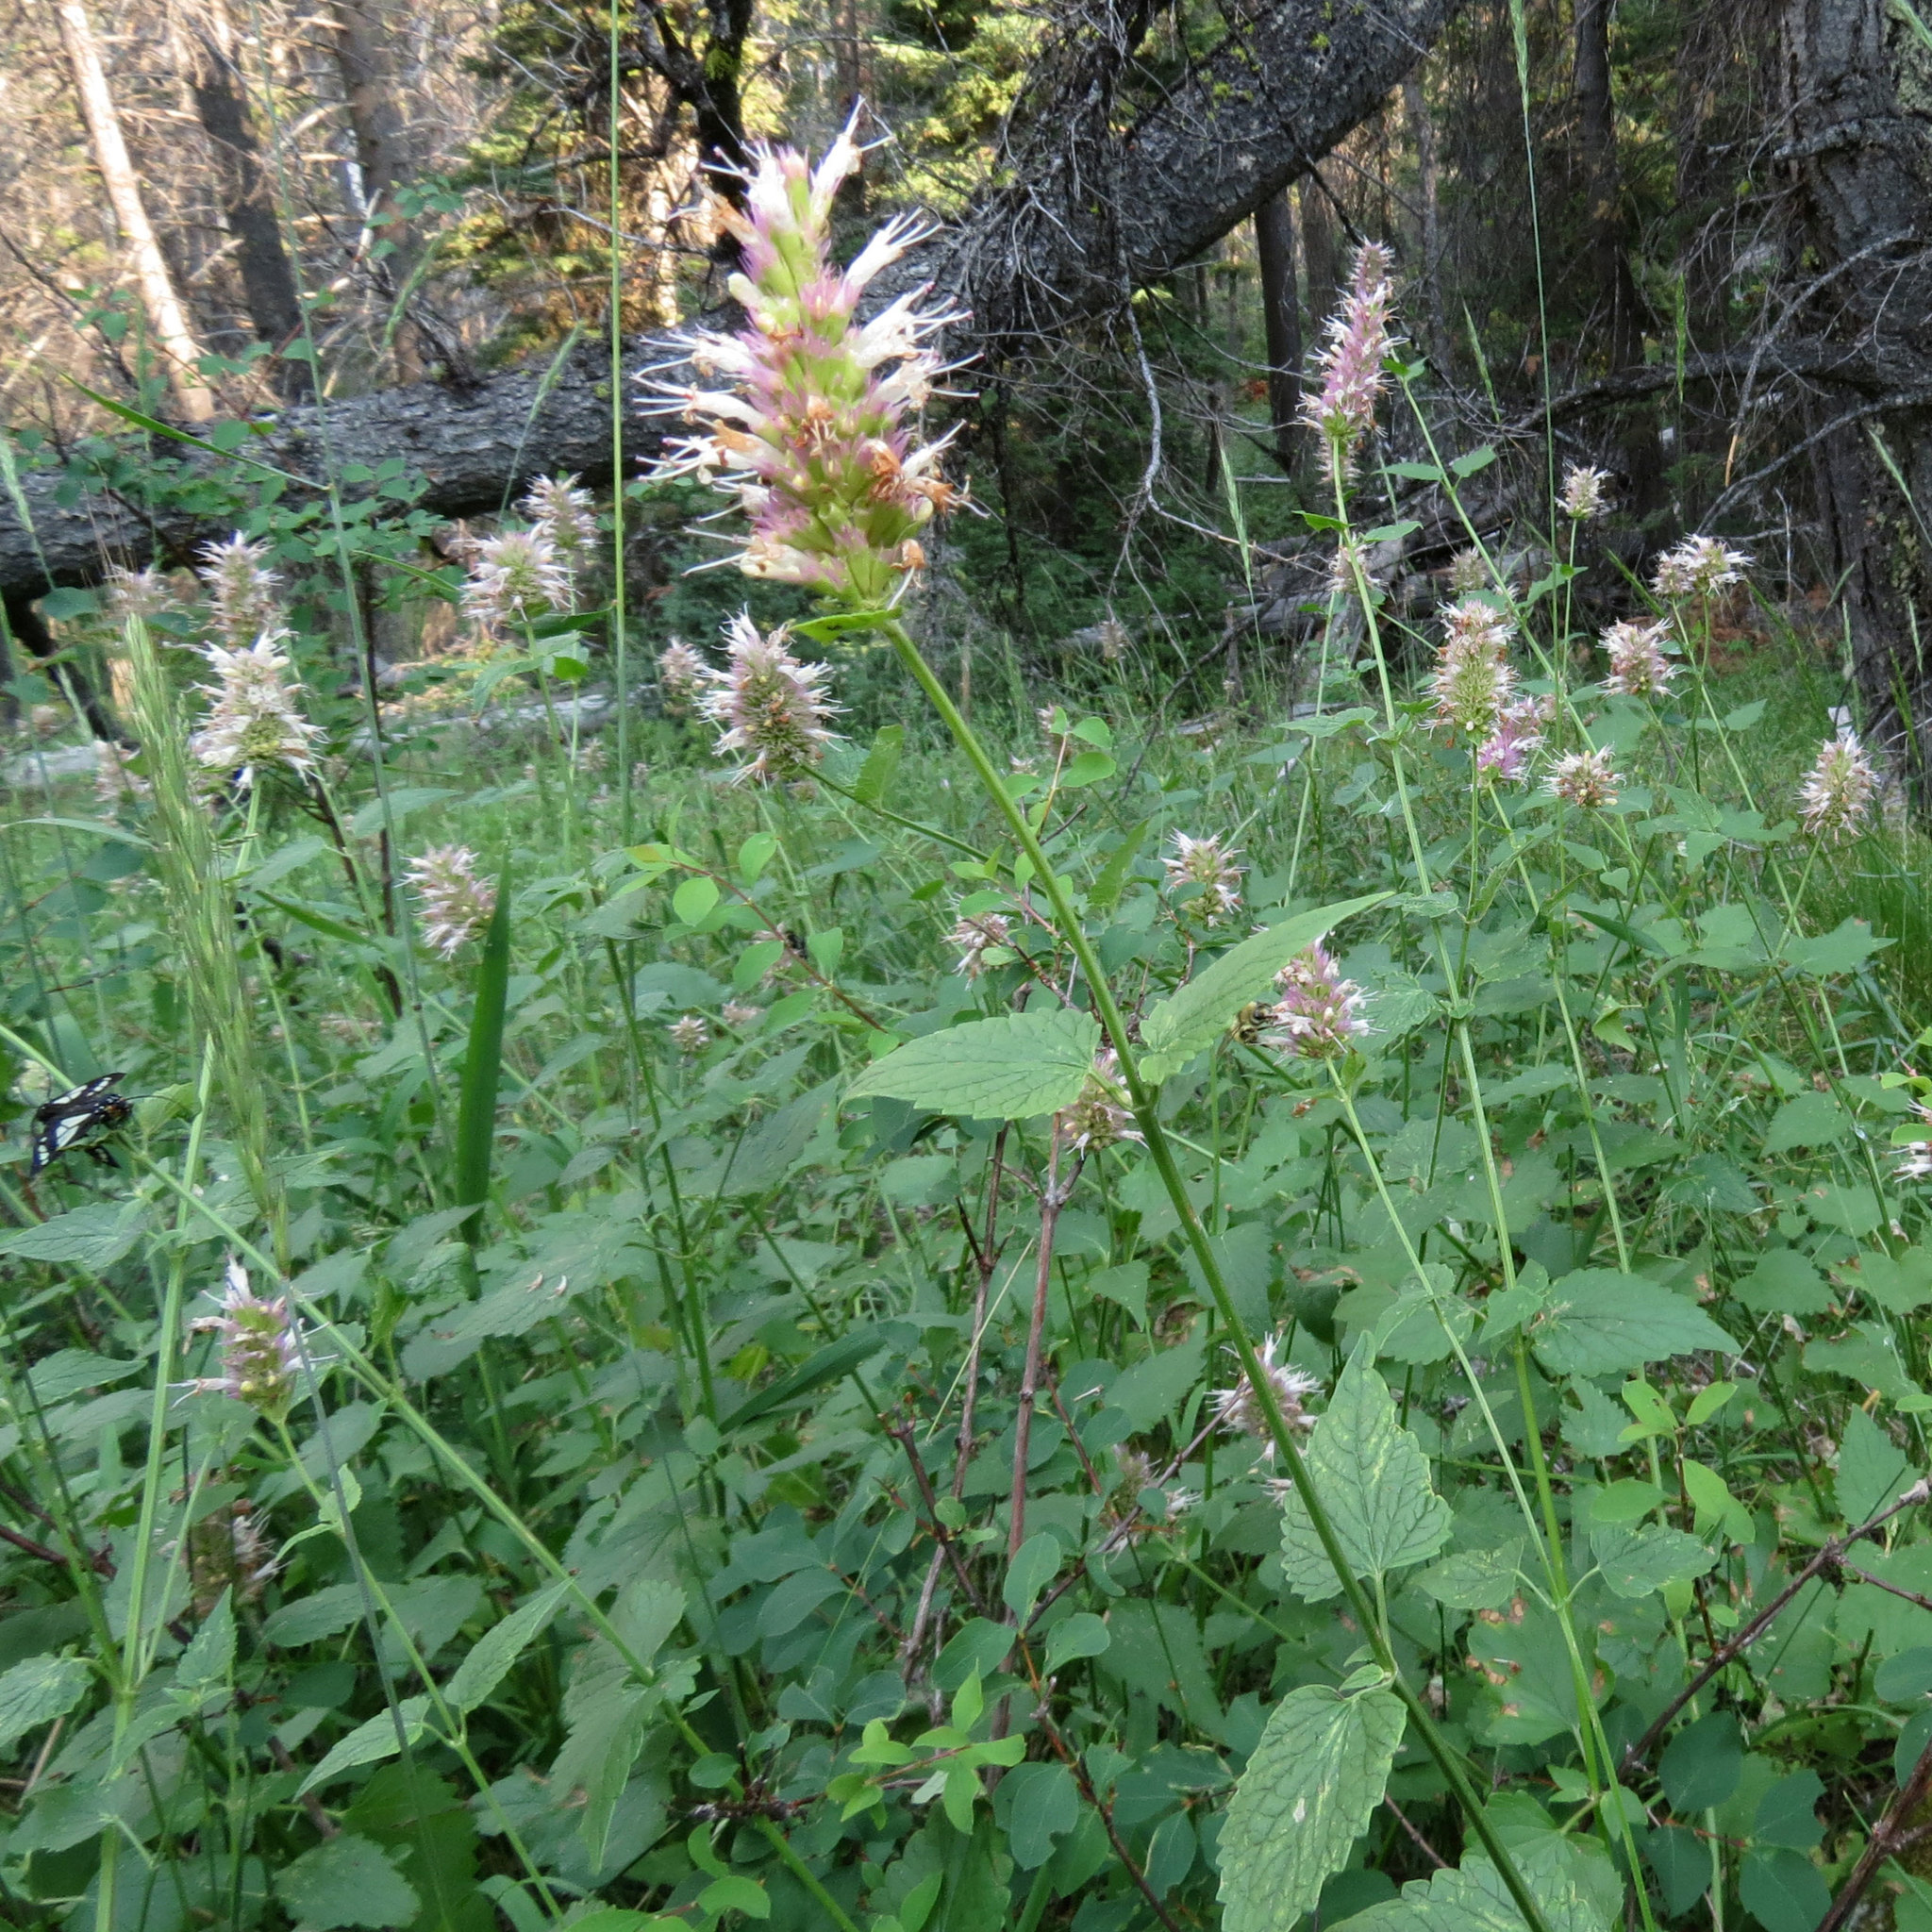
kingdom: Plantae
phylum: Tracheophyta
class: Magnoliopsida
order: Lamiales
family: Lamiaceae
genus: Agastache
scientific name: Agastache urticifolia
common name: Horsemint giant hyssop
